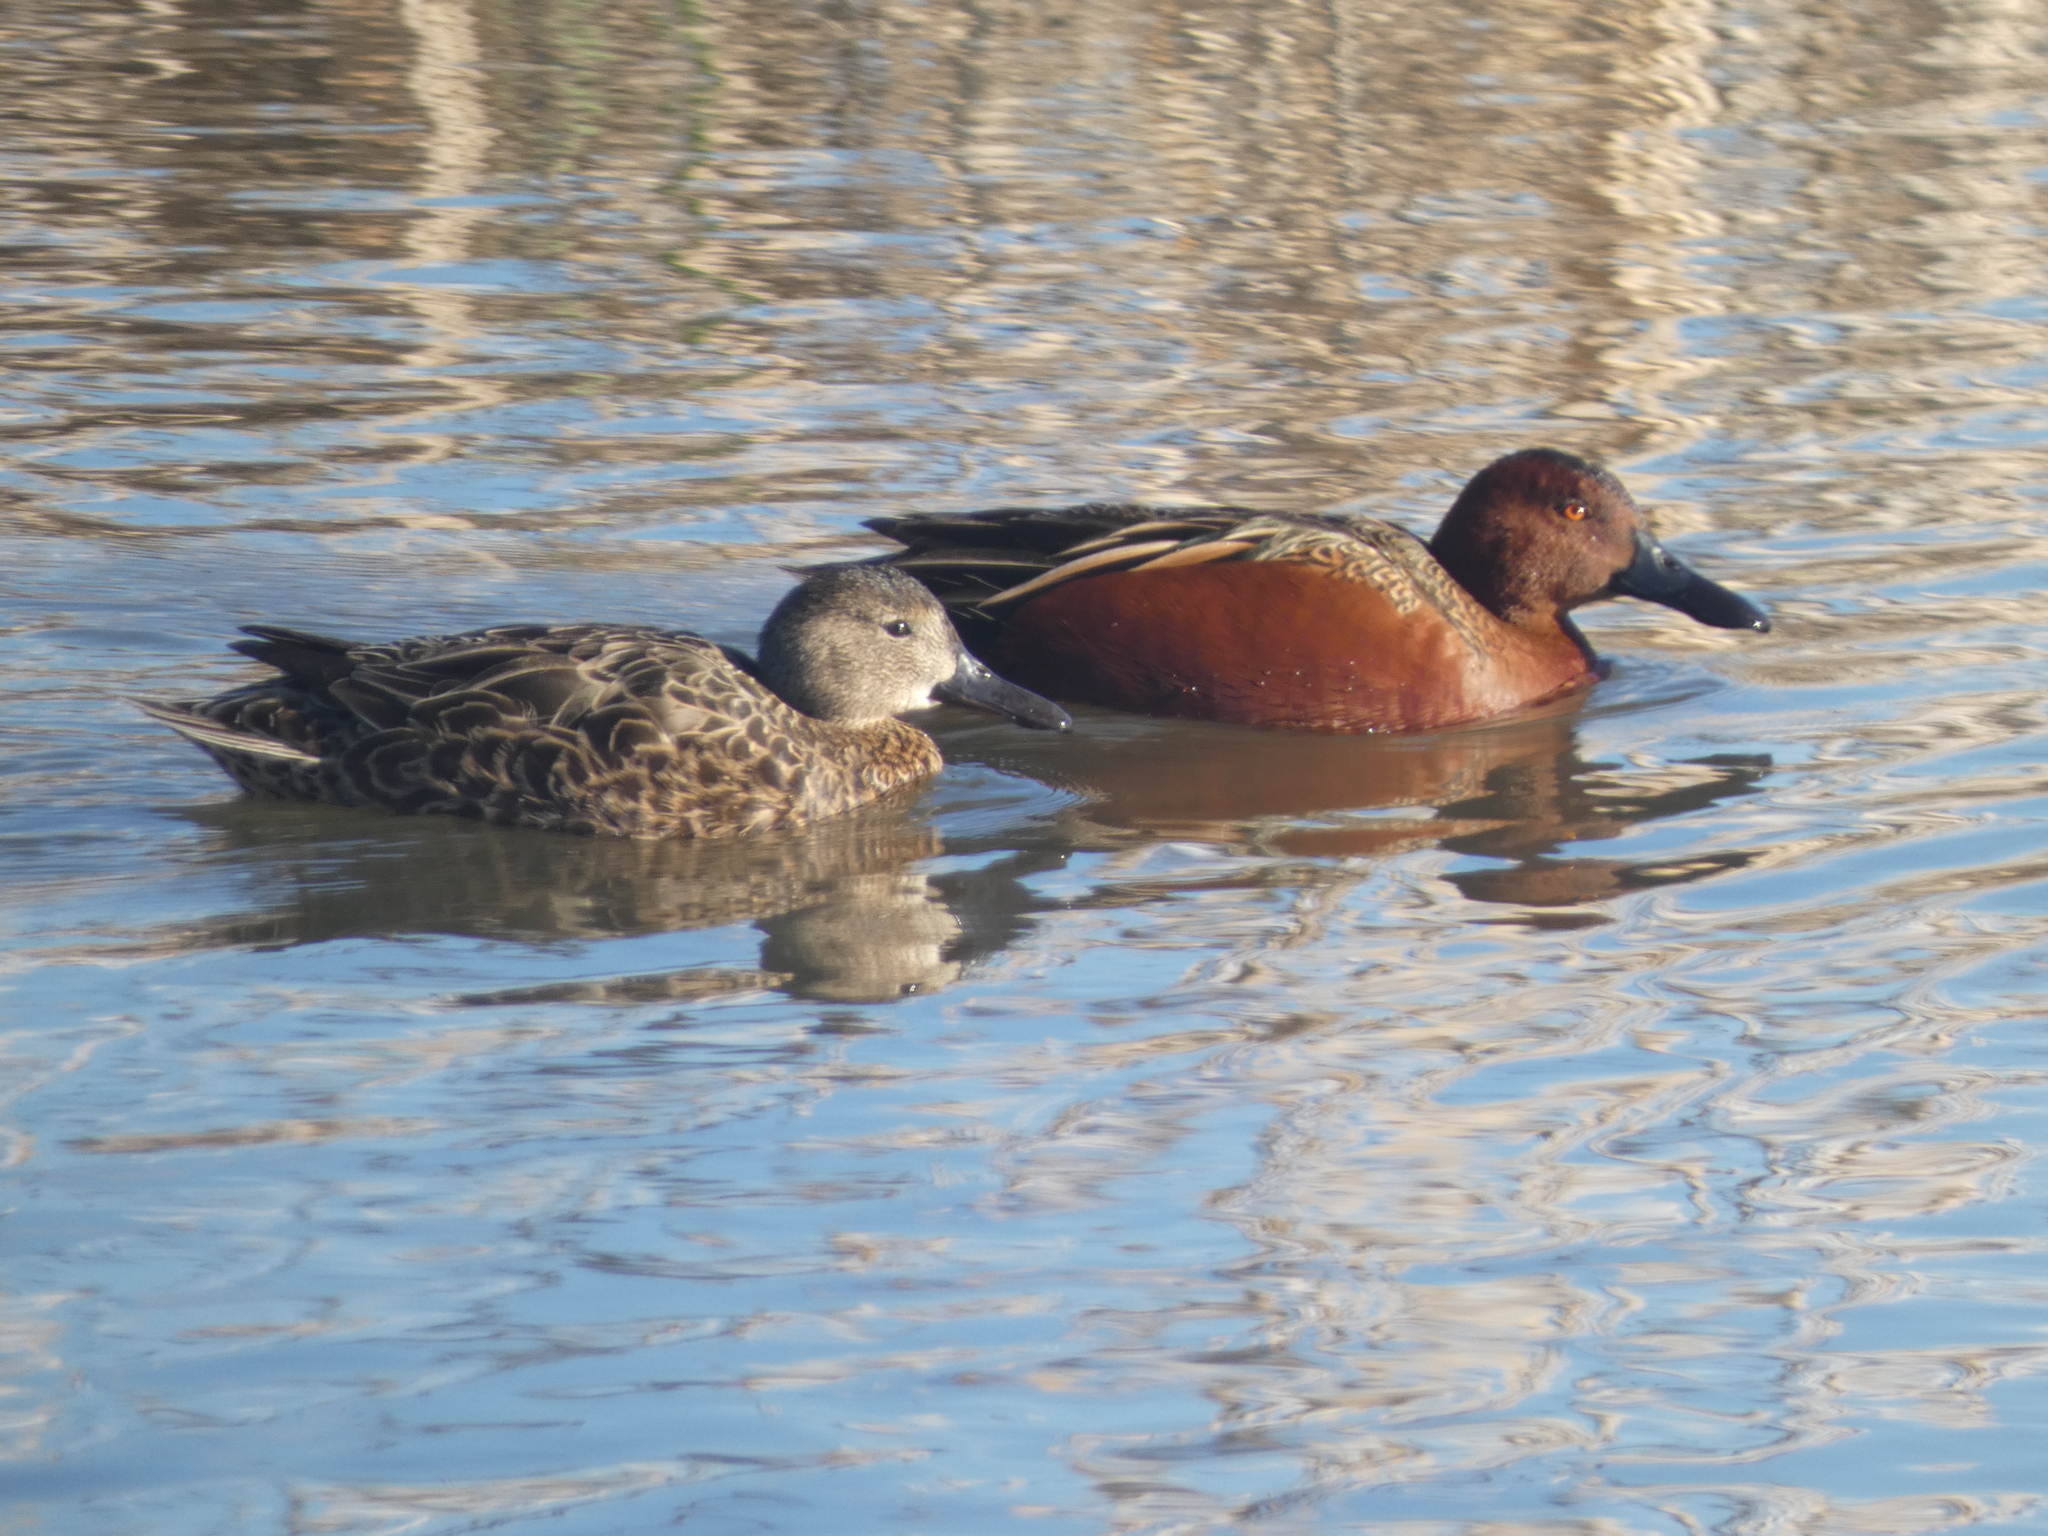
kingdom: Animalia
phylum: Chordata
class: Aves
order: Anseriformes
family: Anatidae
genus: Spatula
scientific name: Spatula cyanoptera
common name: Cinnamon teal
